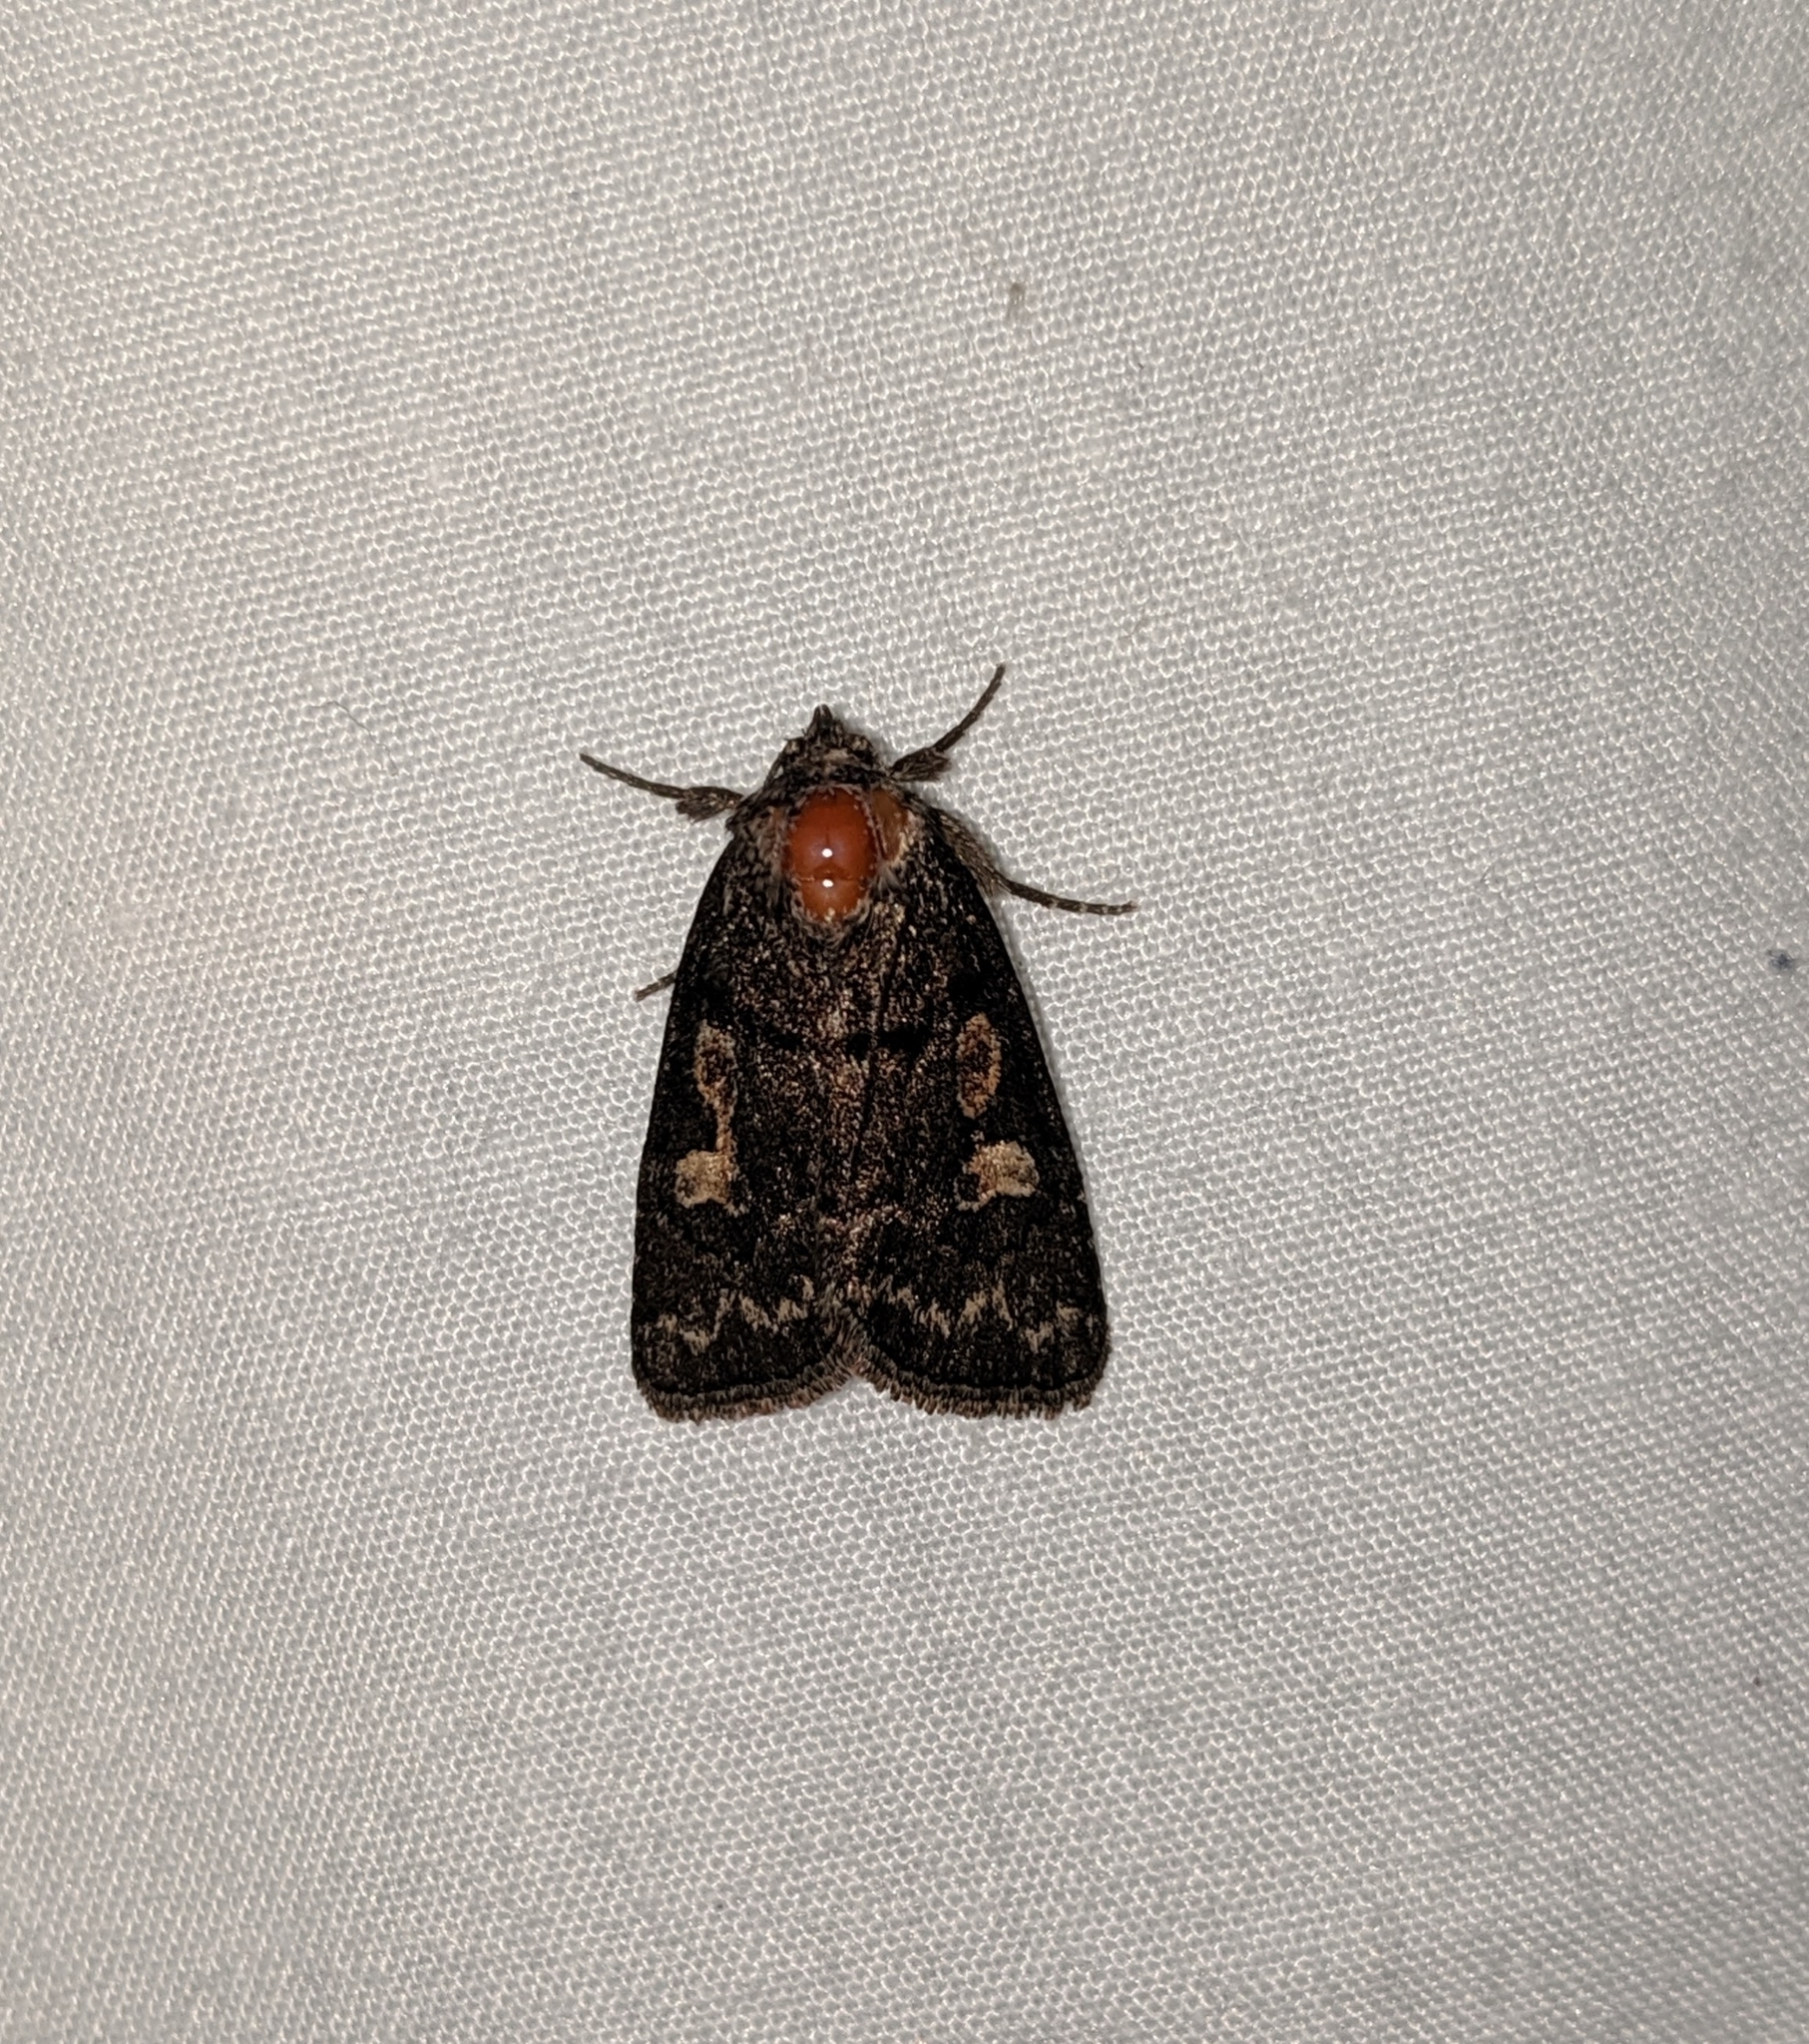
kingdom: Animalia
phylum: Arthropoda
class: Insecta
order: Lepidoptera
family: Noctuidae
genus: Cosmia
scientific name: Cosmia praeacuta
